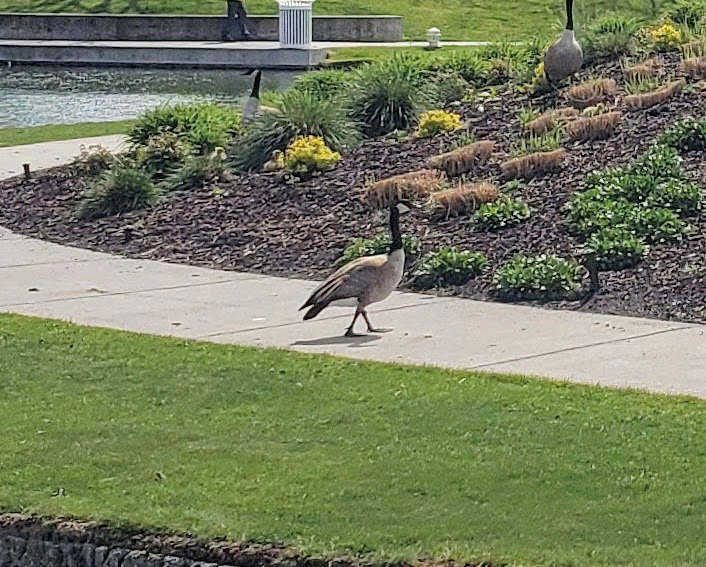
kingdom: Animalia
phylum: Chordata
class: Aves
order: Anseriformes
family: Anatidae
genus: Branta
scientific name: Branta canadensis
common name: Canada goose
